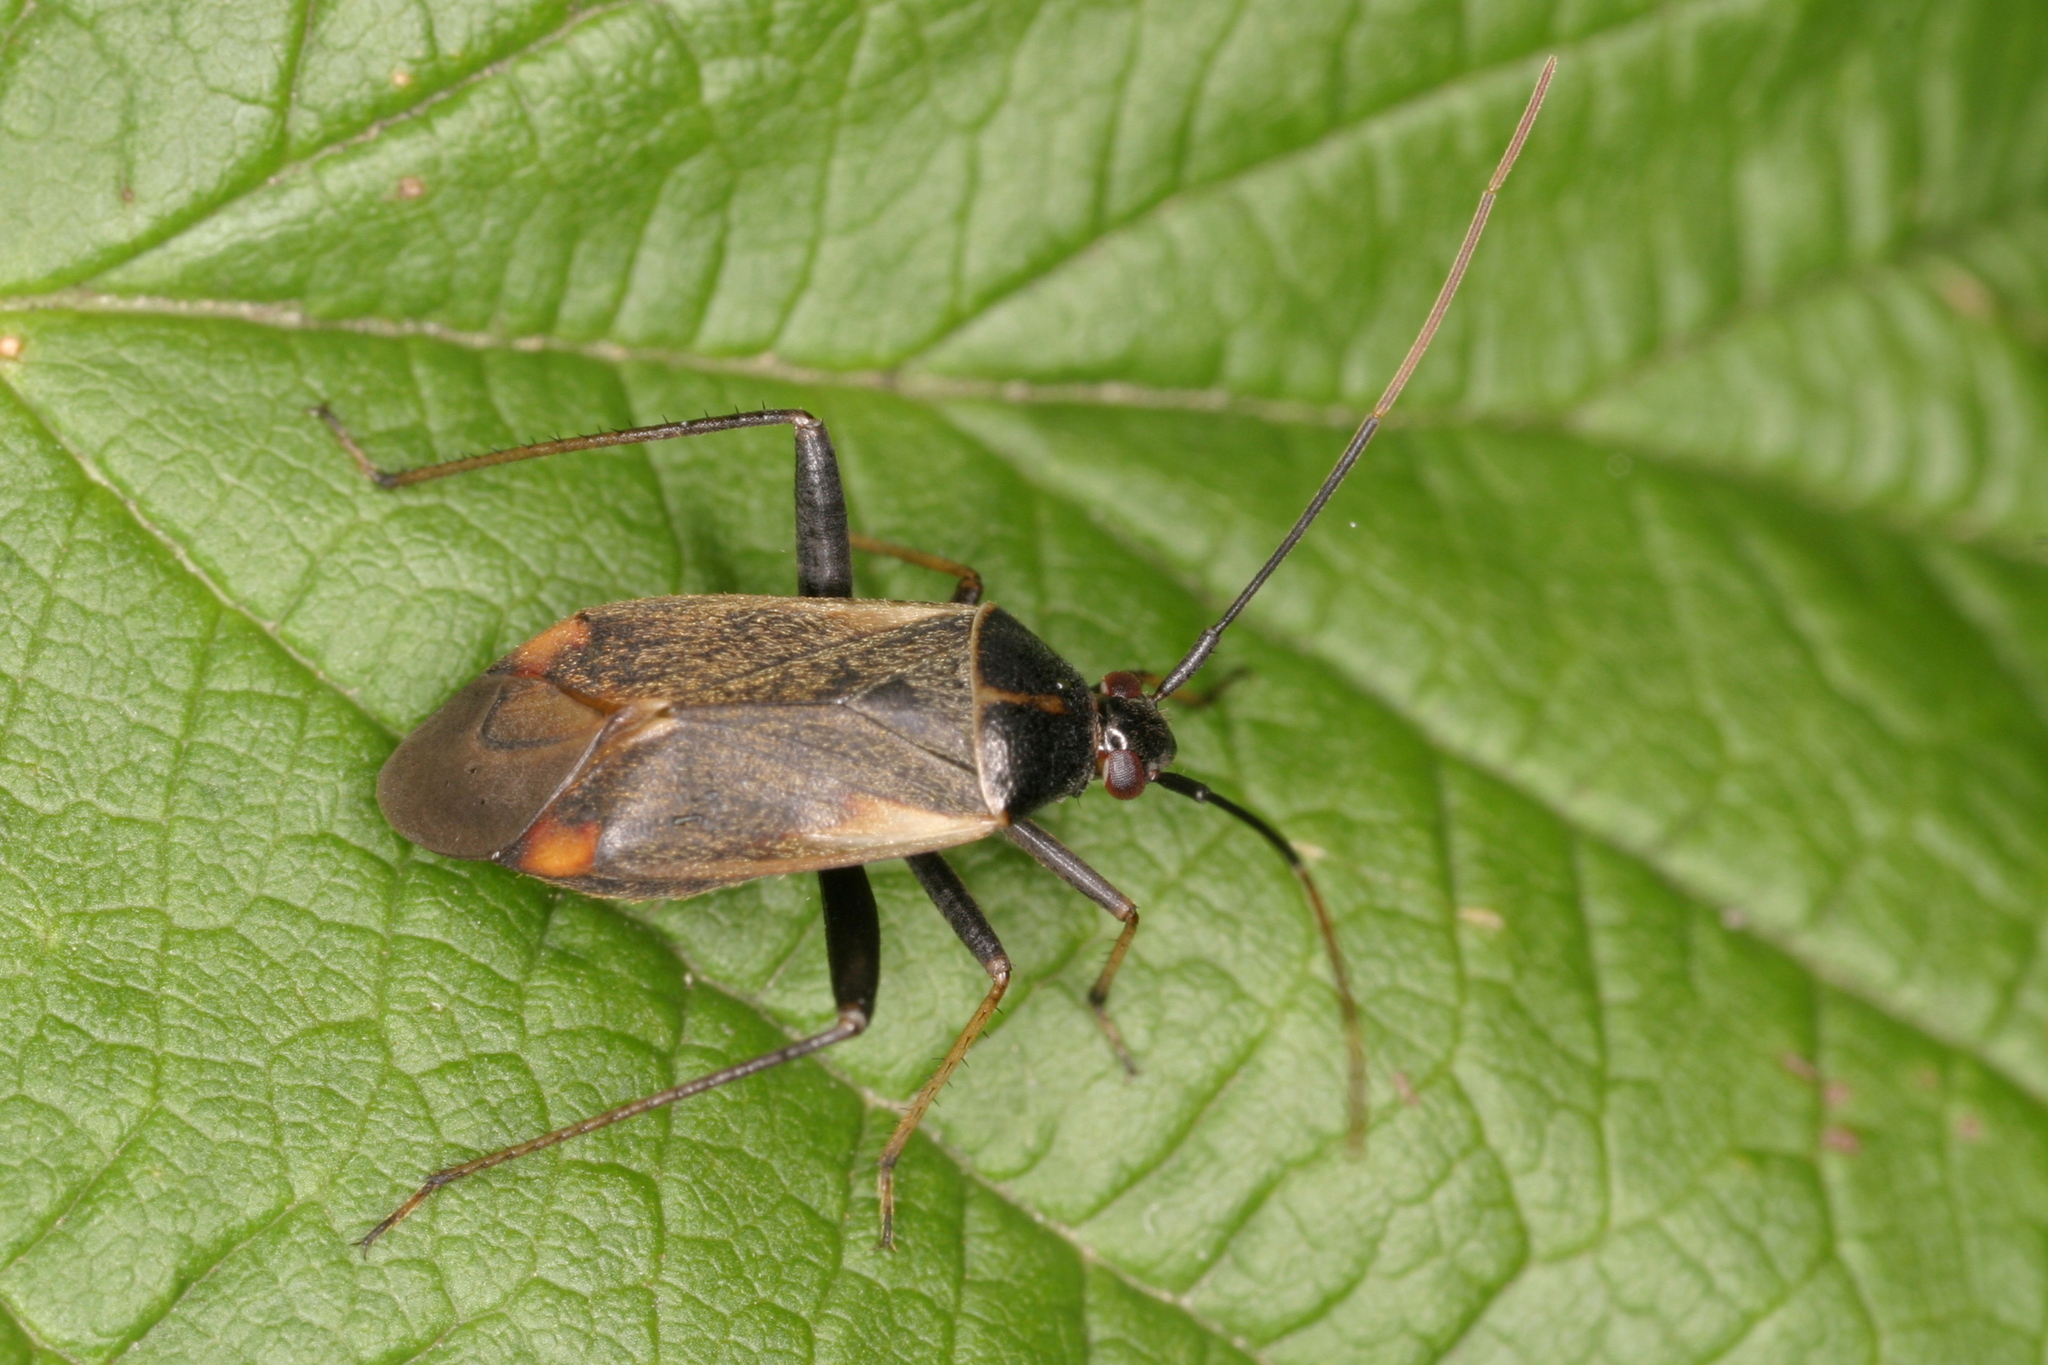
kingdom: Animalia
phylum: Arthropoda
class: Insecta
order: Hemiptera
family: Miridae
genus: Adelphocoris
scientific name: Adelphocoris seticornis
